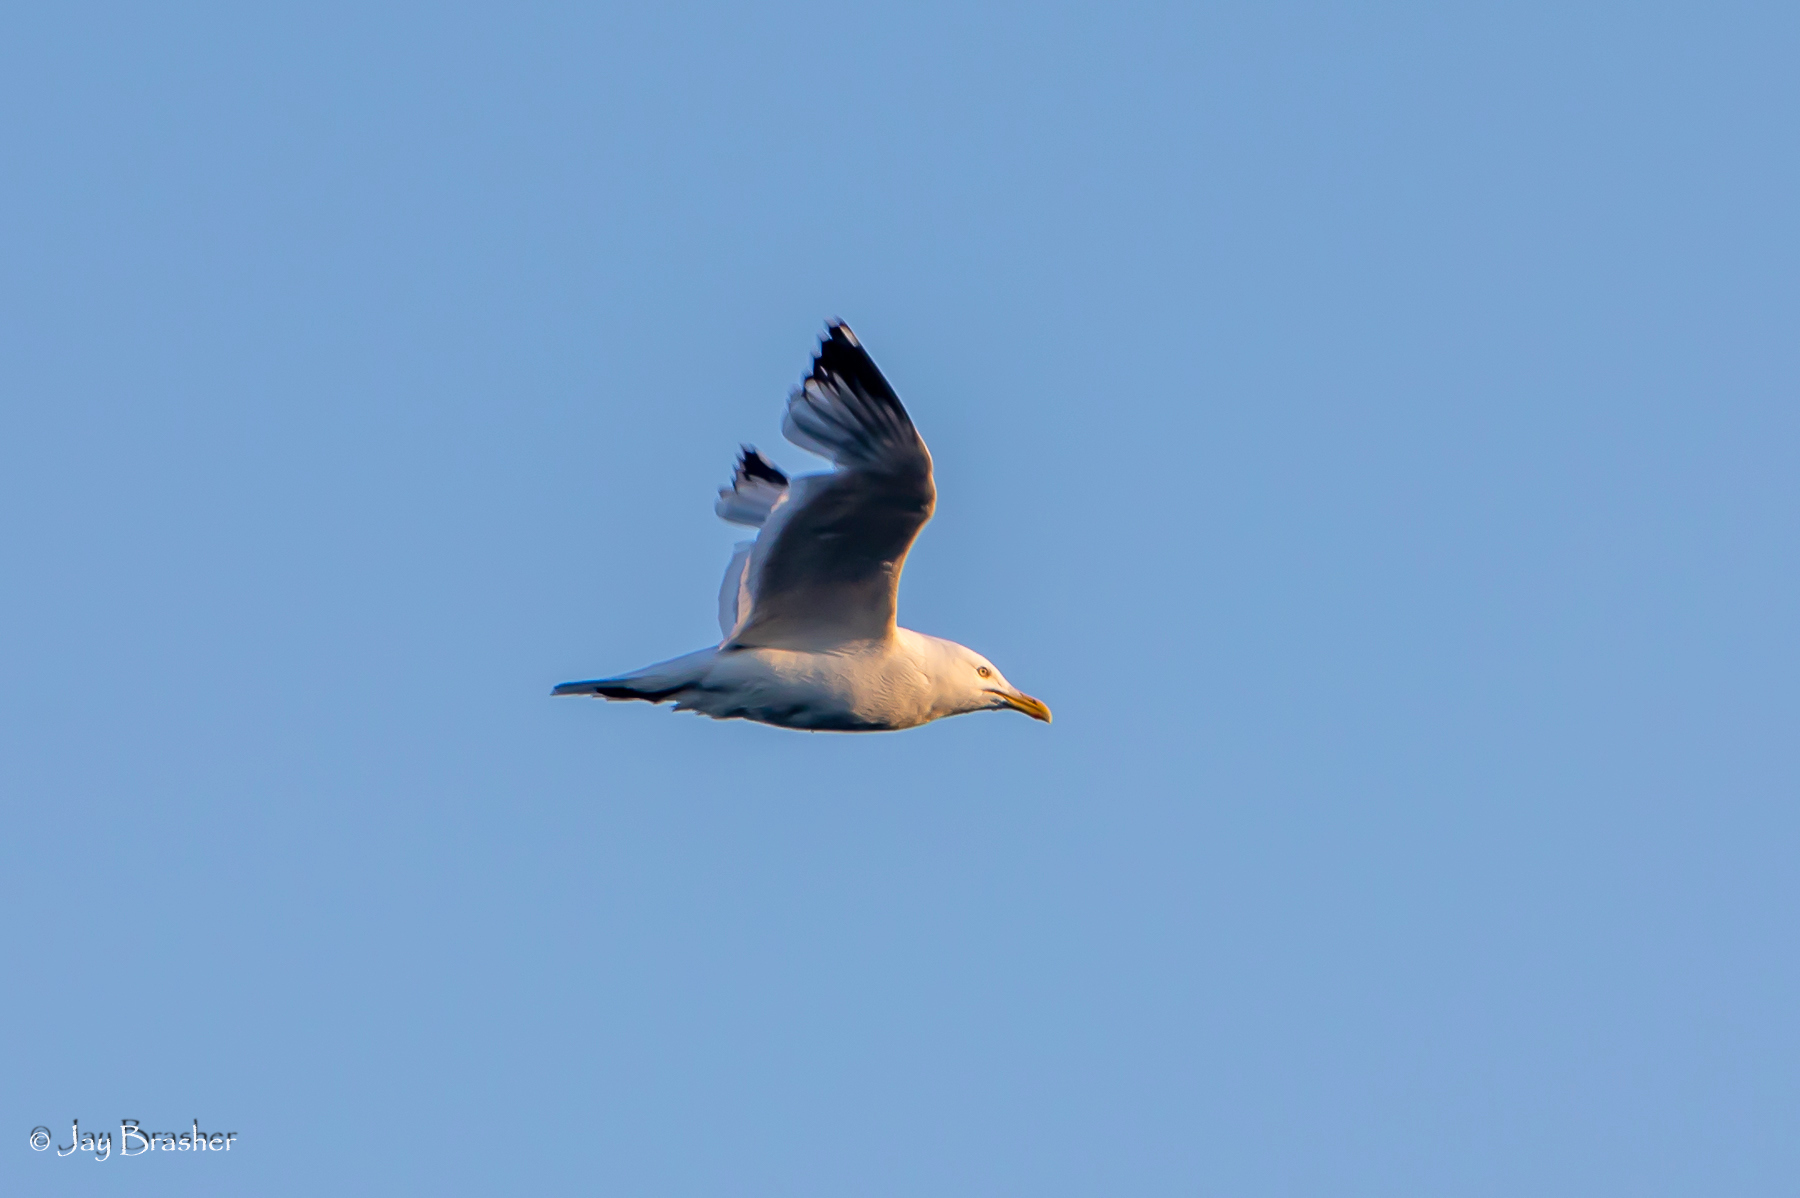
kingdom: Animalia
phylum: Chordata
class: Aves
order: Charadriiformes
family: Laridae
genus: Larus
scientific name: Larus argentatus
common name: Herring gull
